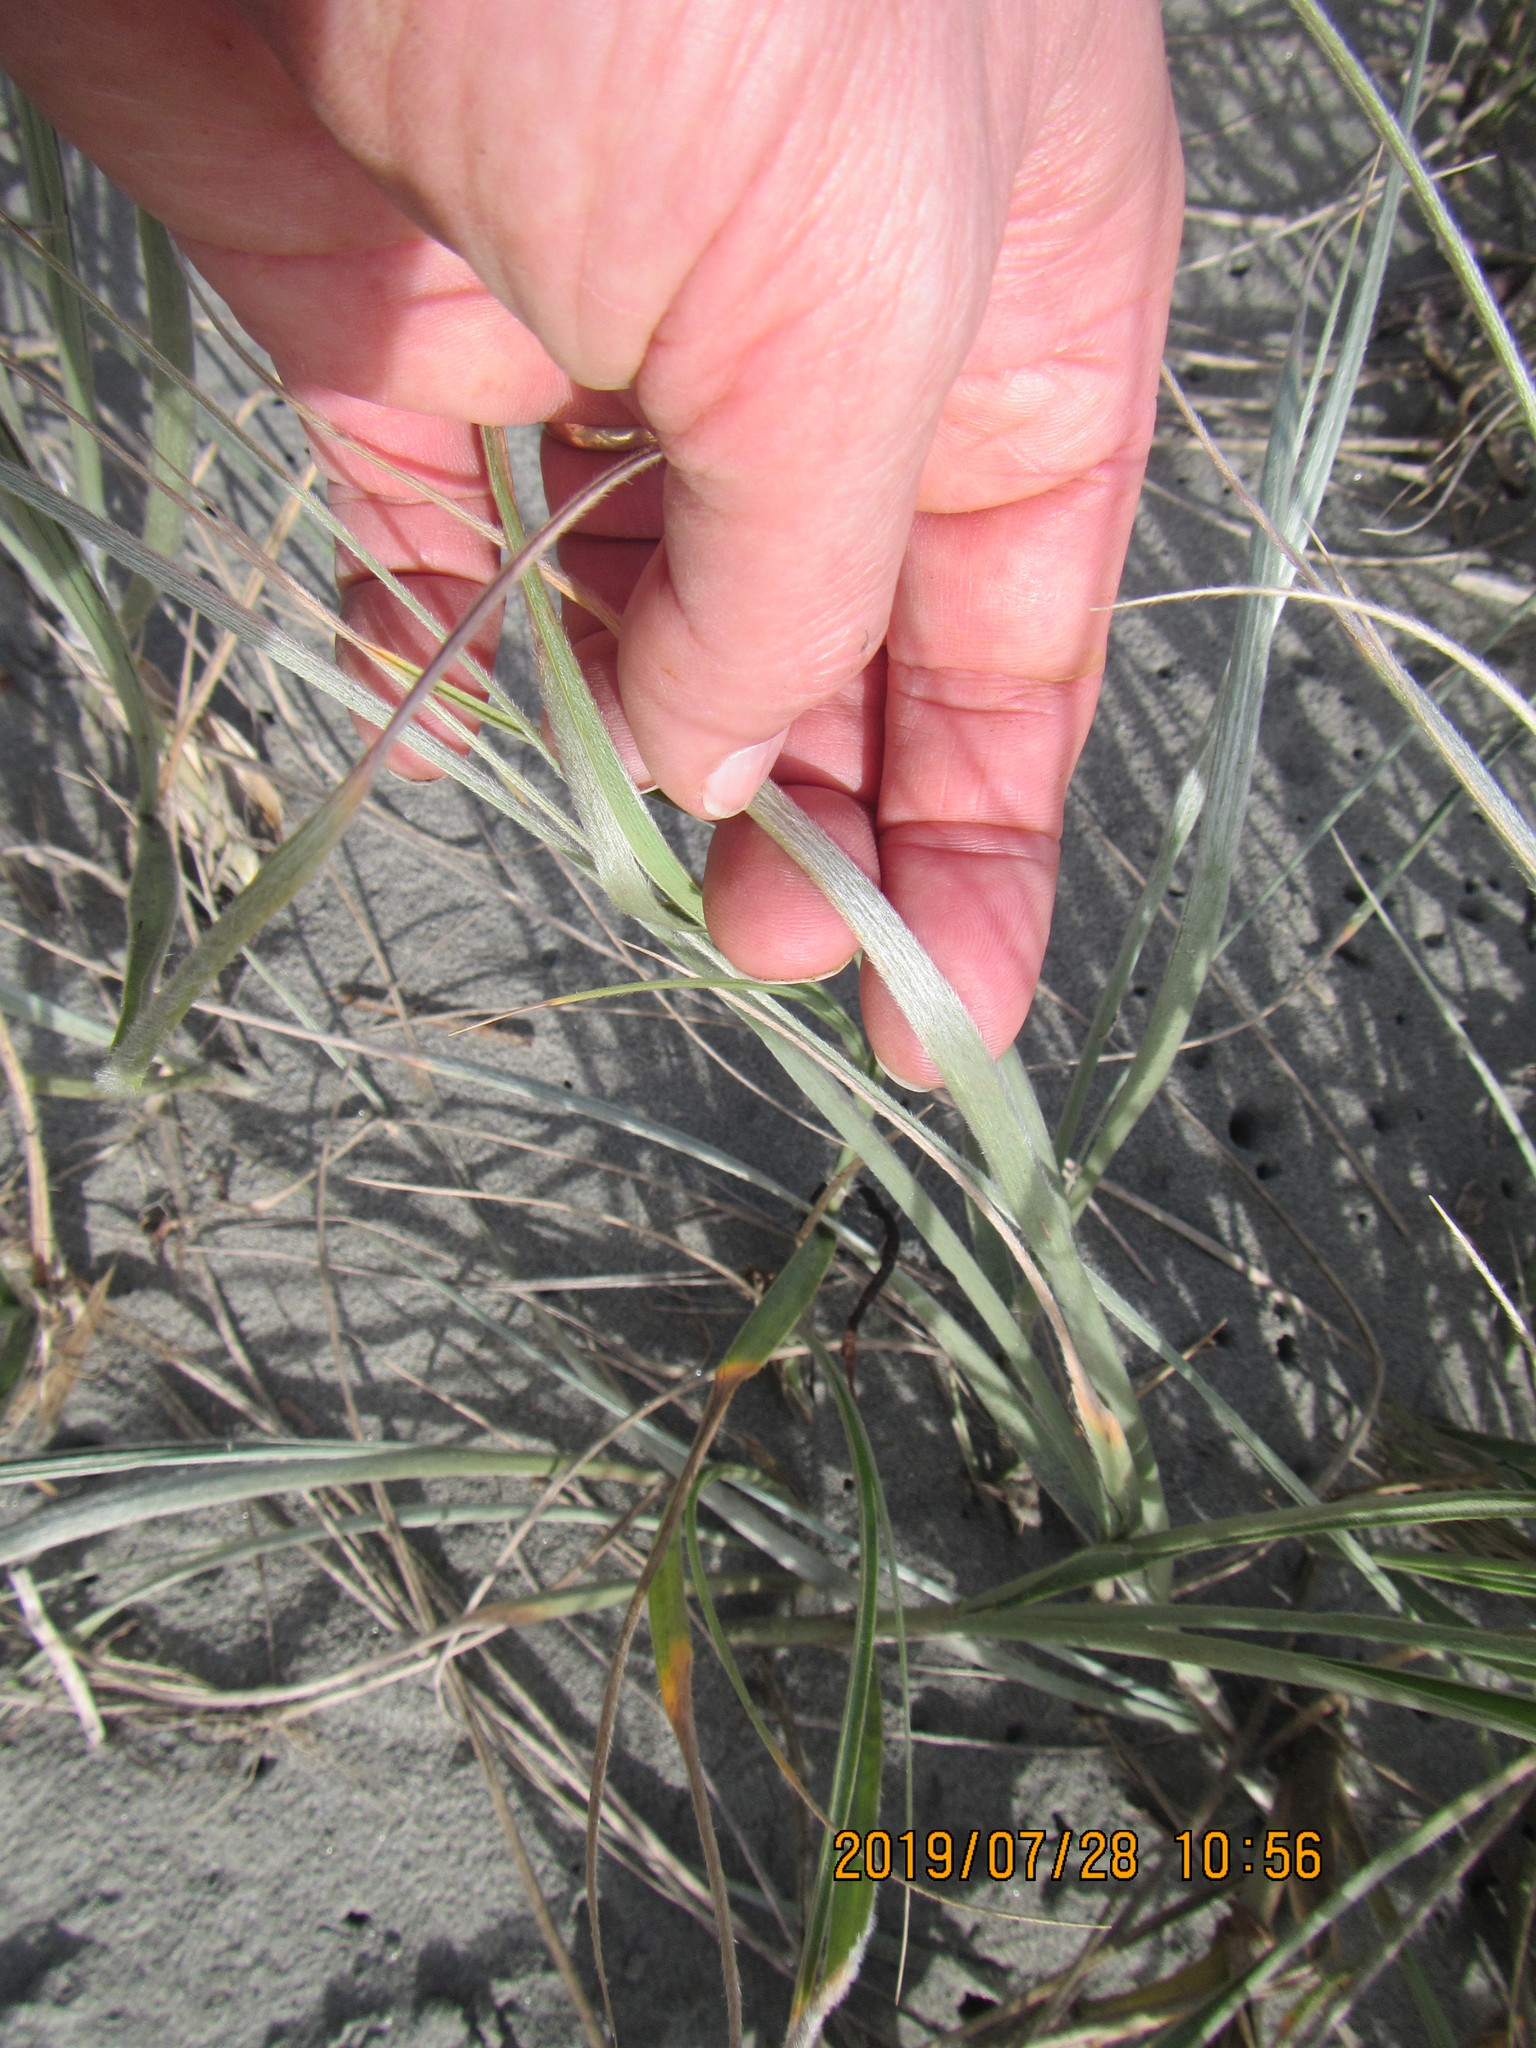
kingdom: Plantae
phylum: Tracheophyta
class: Liliopsida
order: Poales
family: Poaceae
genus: Spinifex
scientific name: Spinifex sericeus
